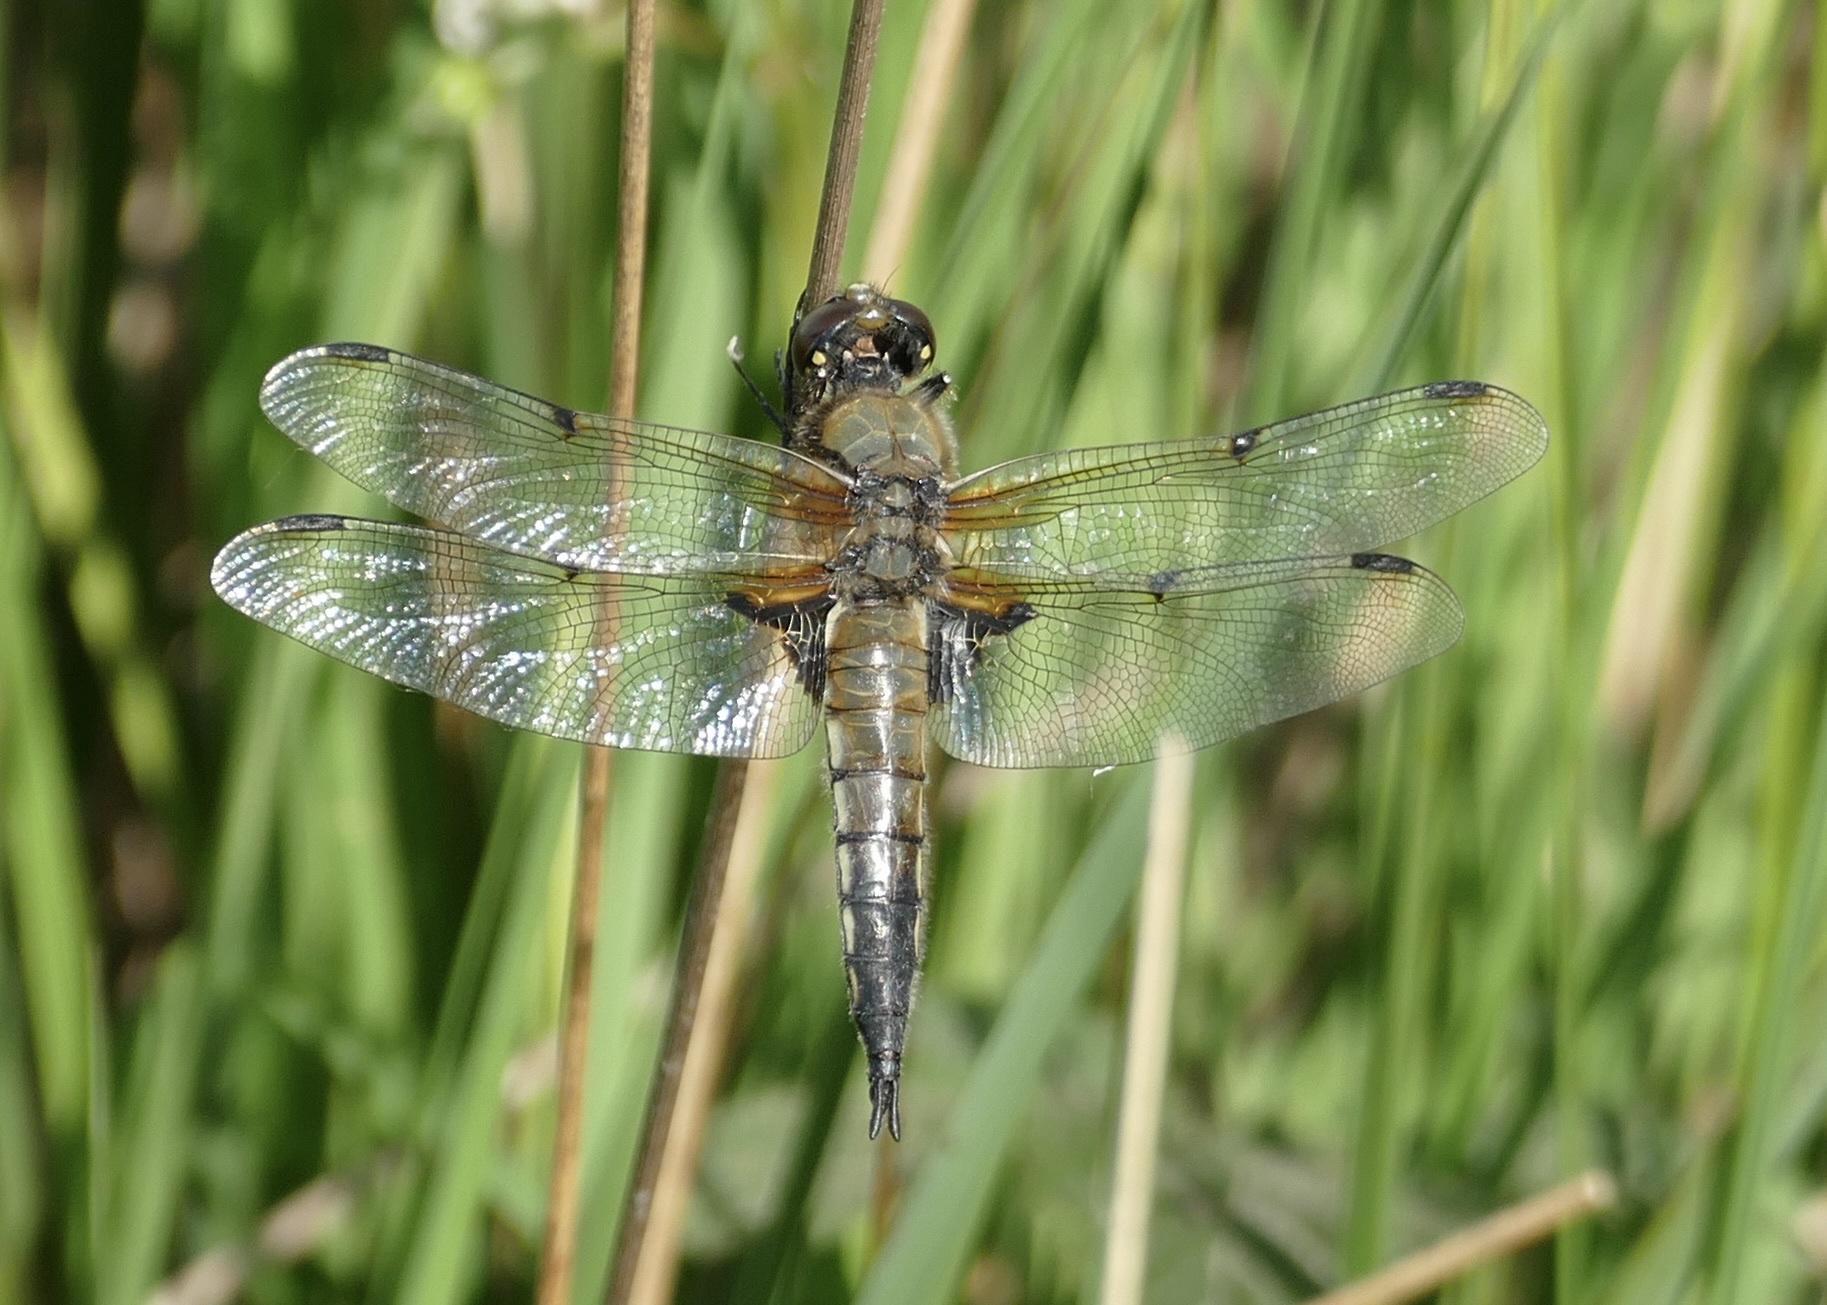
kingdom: Animalia
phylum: Arthropoda
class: Insecta
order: Odonata
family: Libellulidae
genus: Libellula
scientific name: Libellula quadrimaculata
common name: Four-spotted chaser
